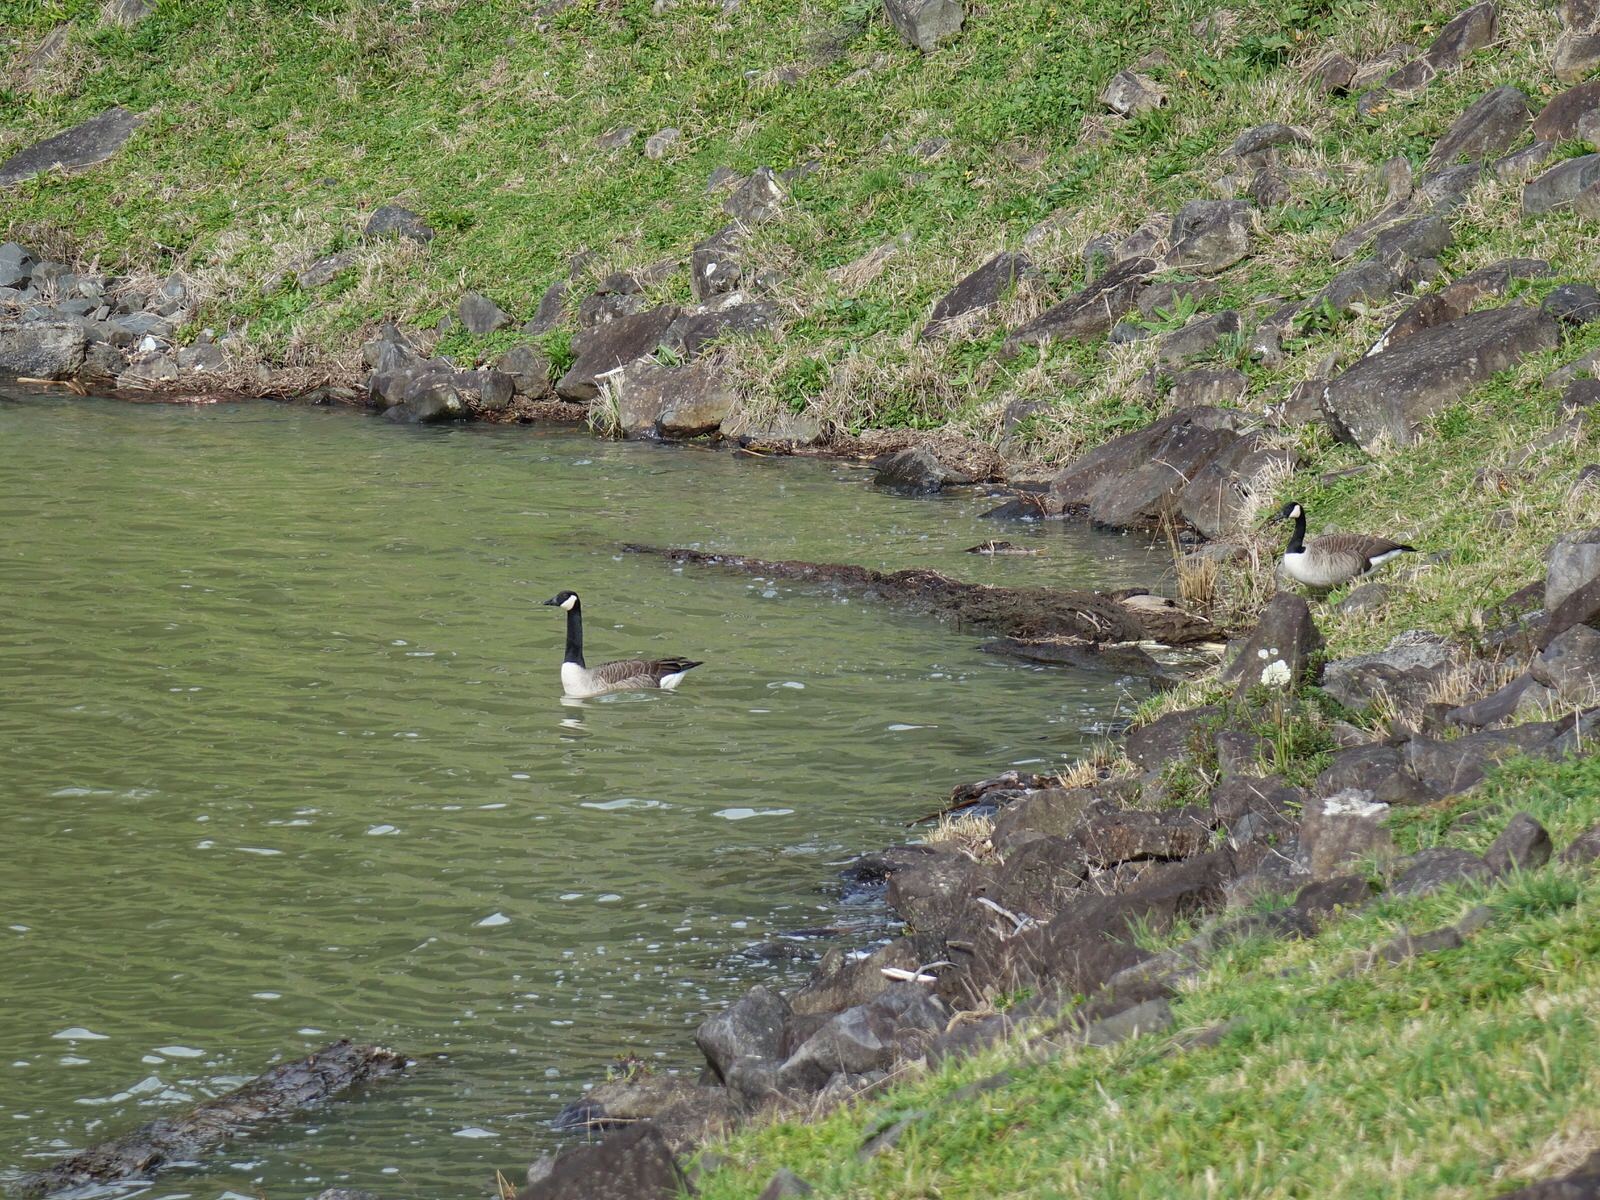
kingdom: Animalia
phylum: Chordata
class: Aves
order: Anseriformes
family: Anatidae
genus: Branta
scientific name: Branta canadensis
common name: Canada goose
